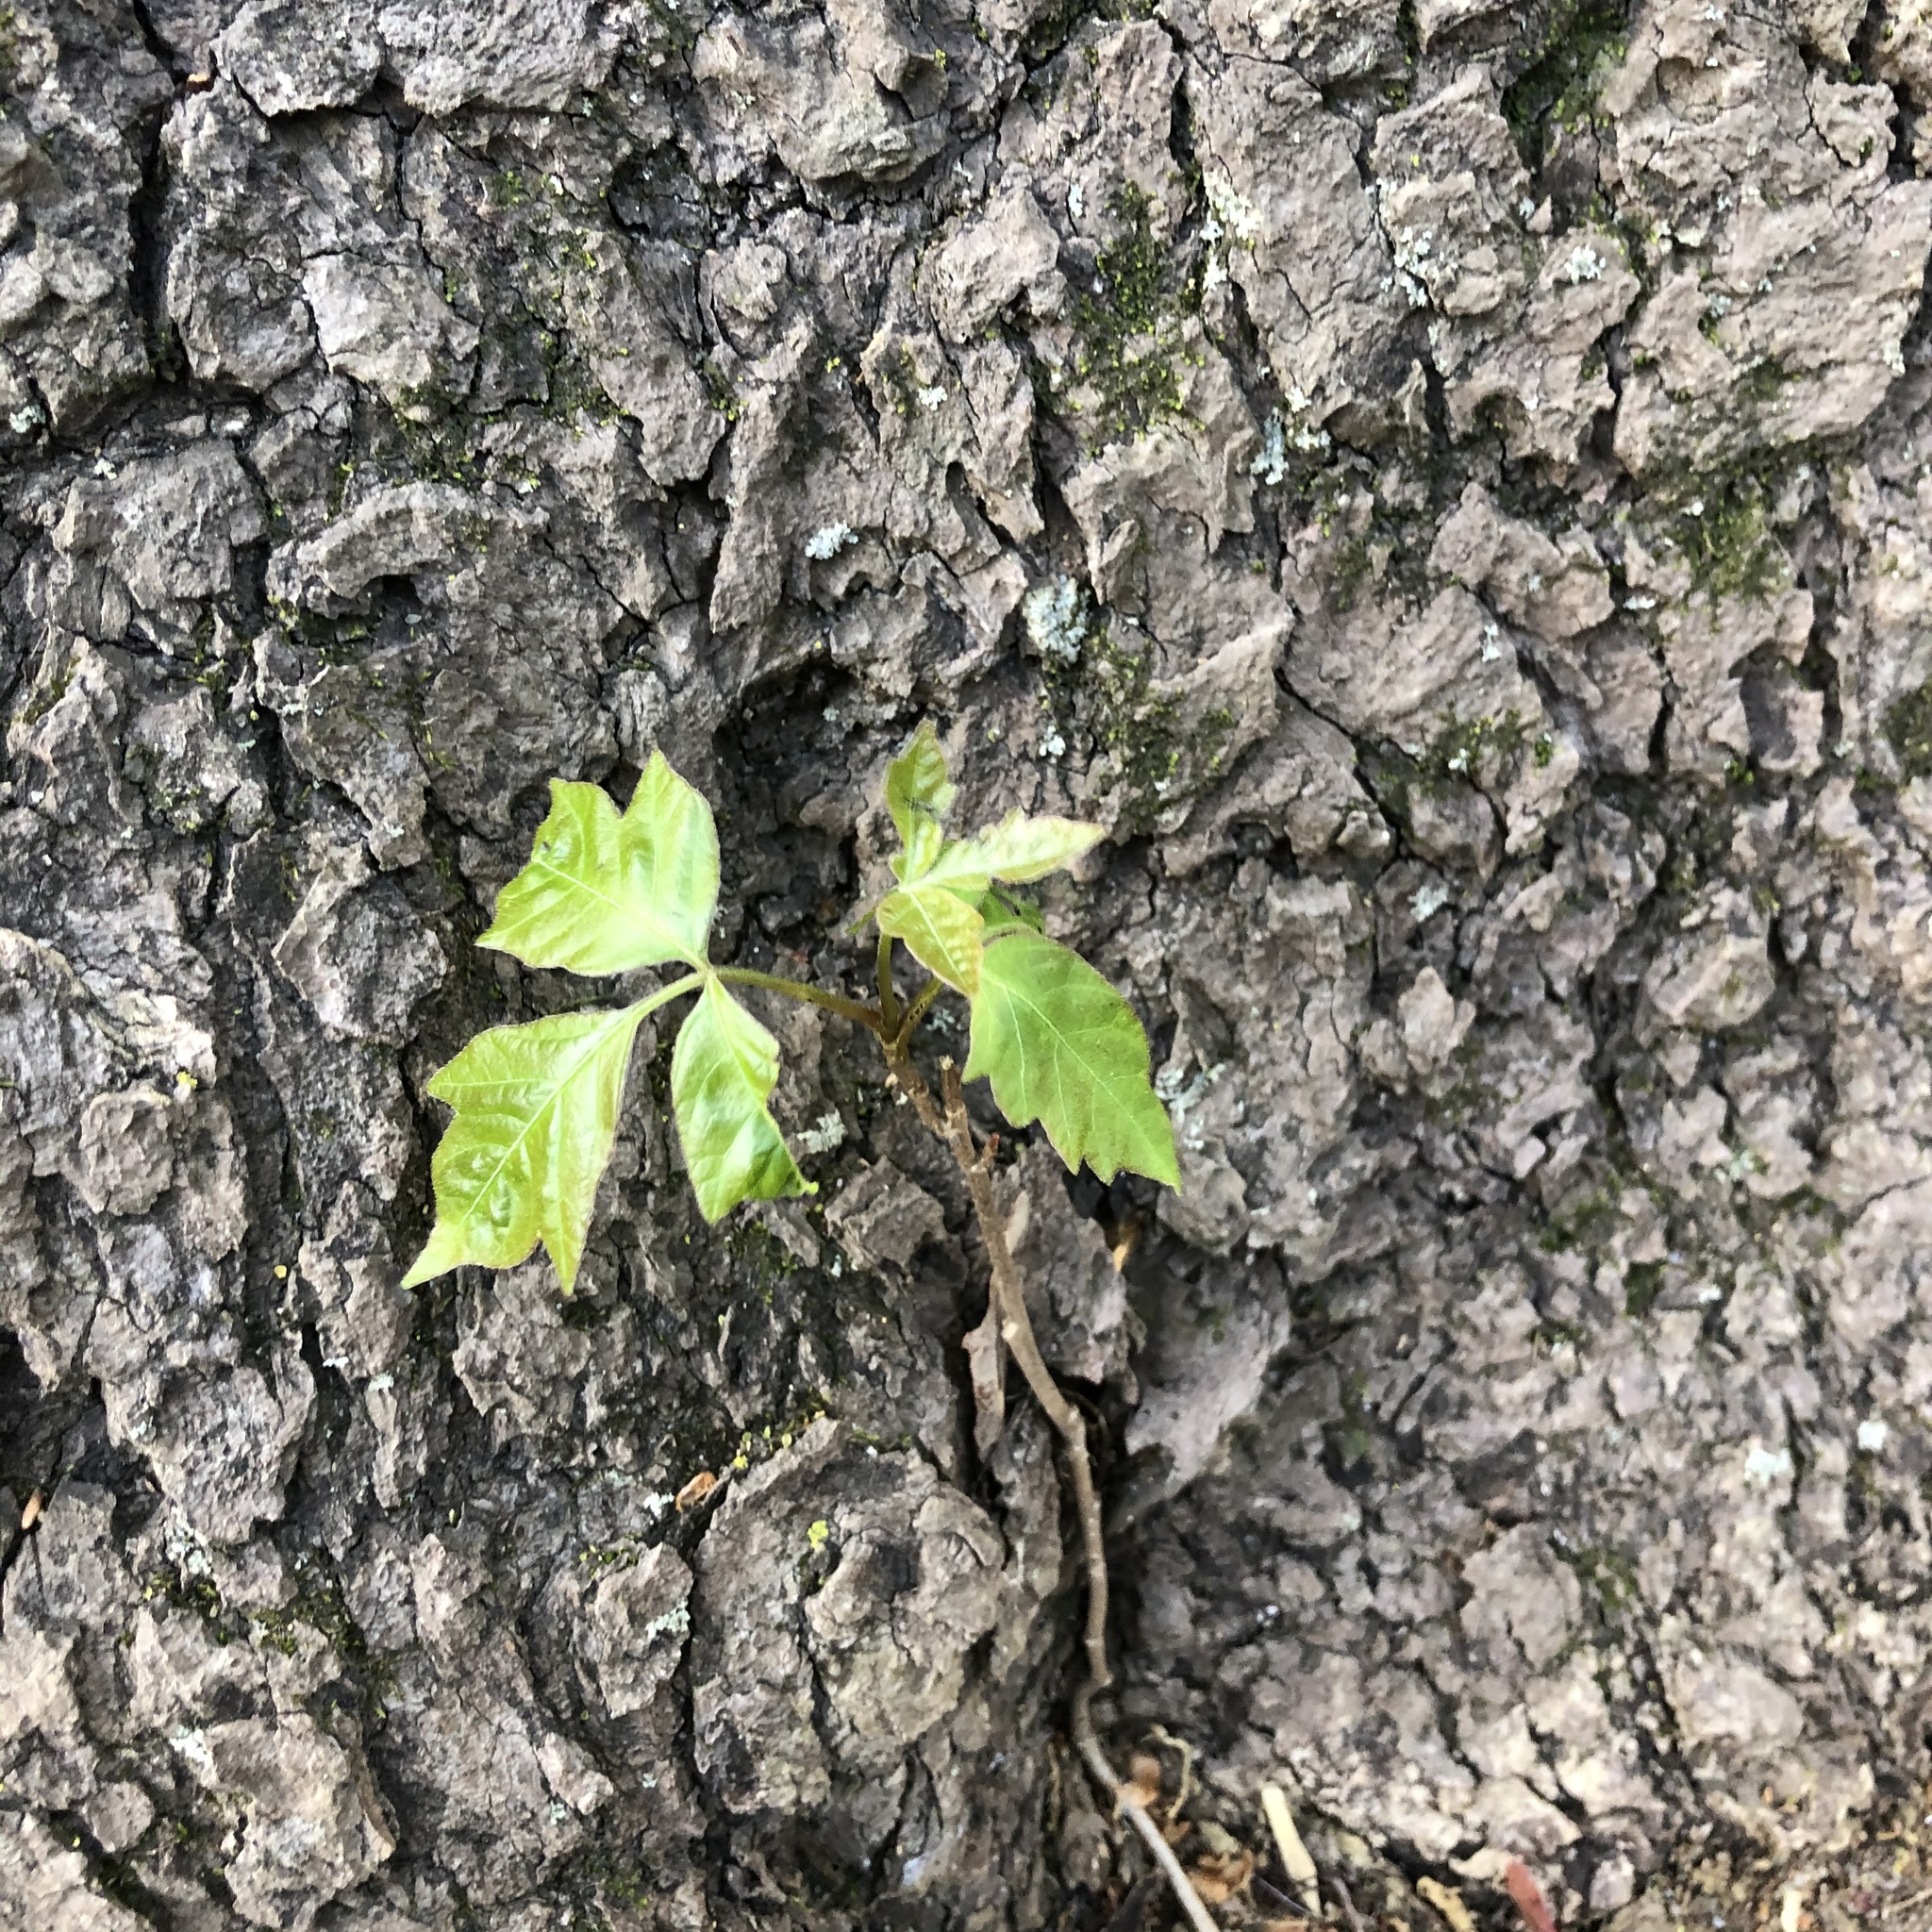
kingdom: Plantae
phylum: Tracheophyta
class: Magnoliopsida
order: Sapindales
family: Anacardiaceae
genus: Toxicodendron
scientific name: Toxicodendron radicans
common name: Poison ivy
